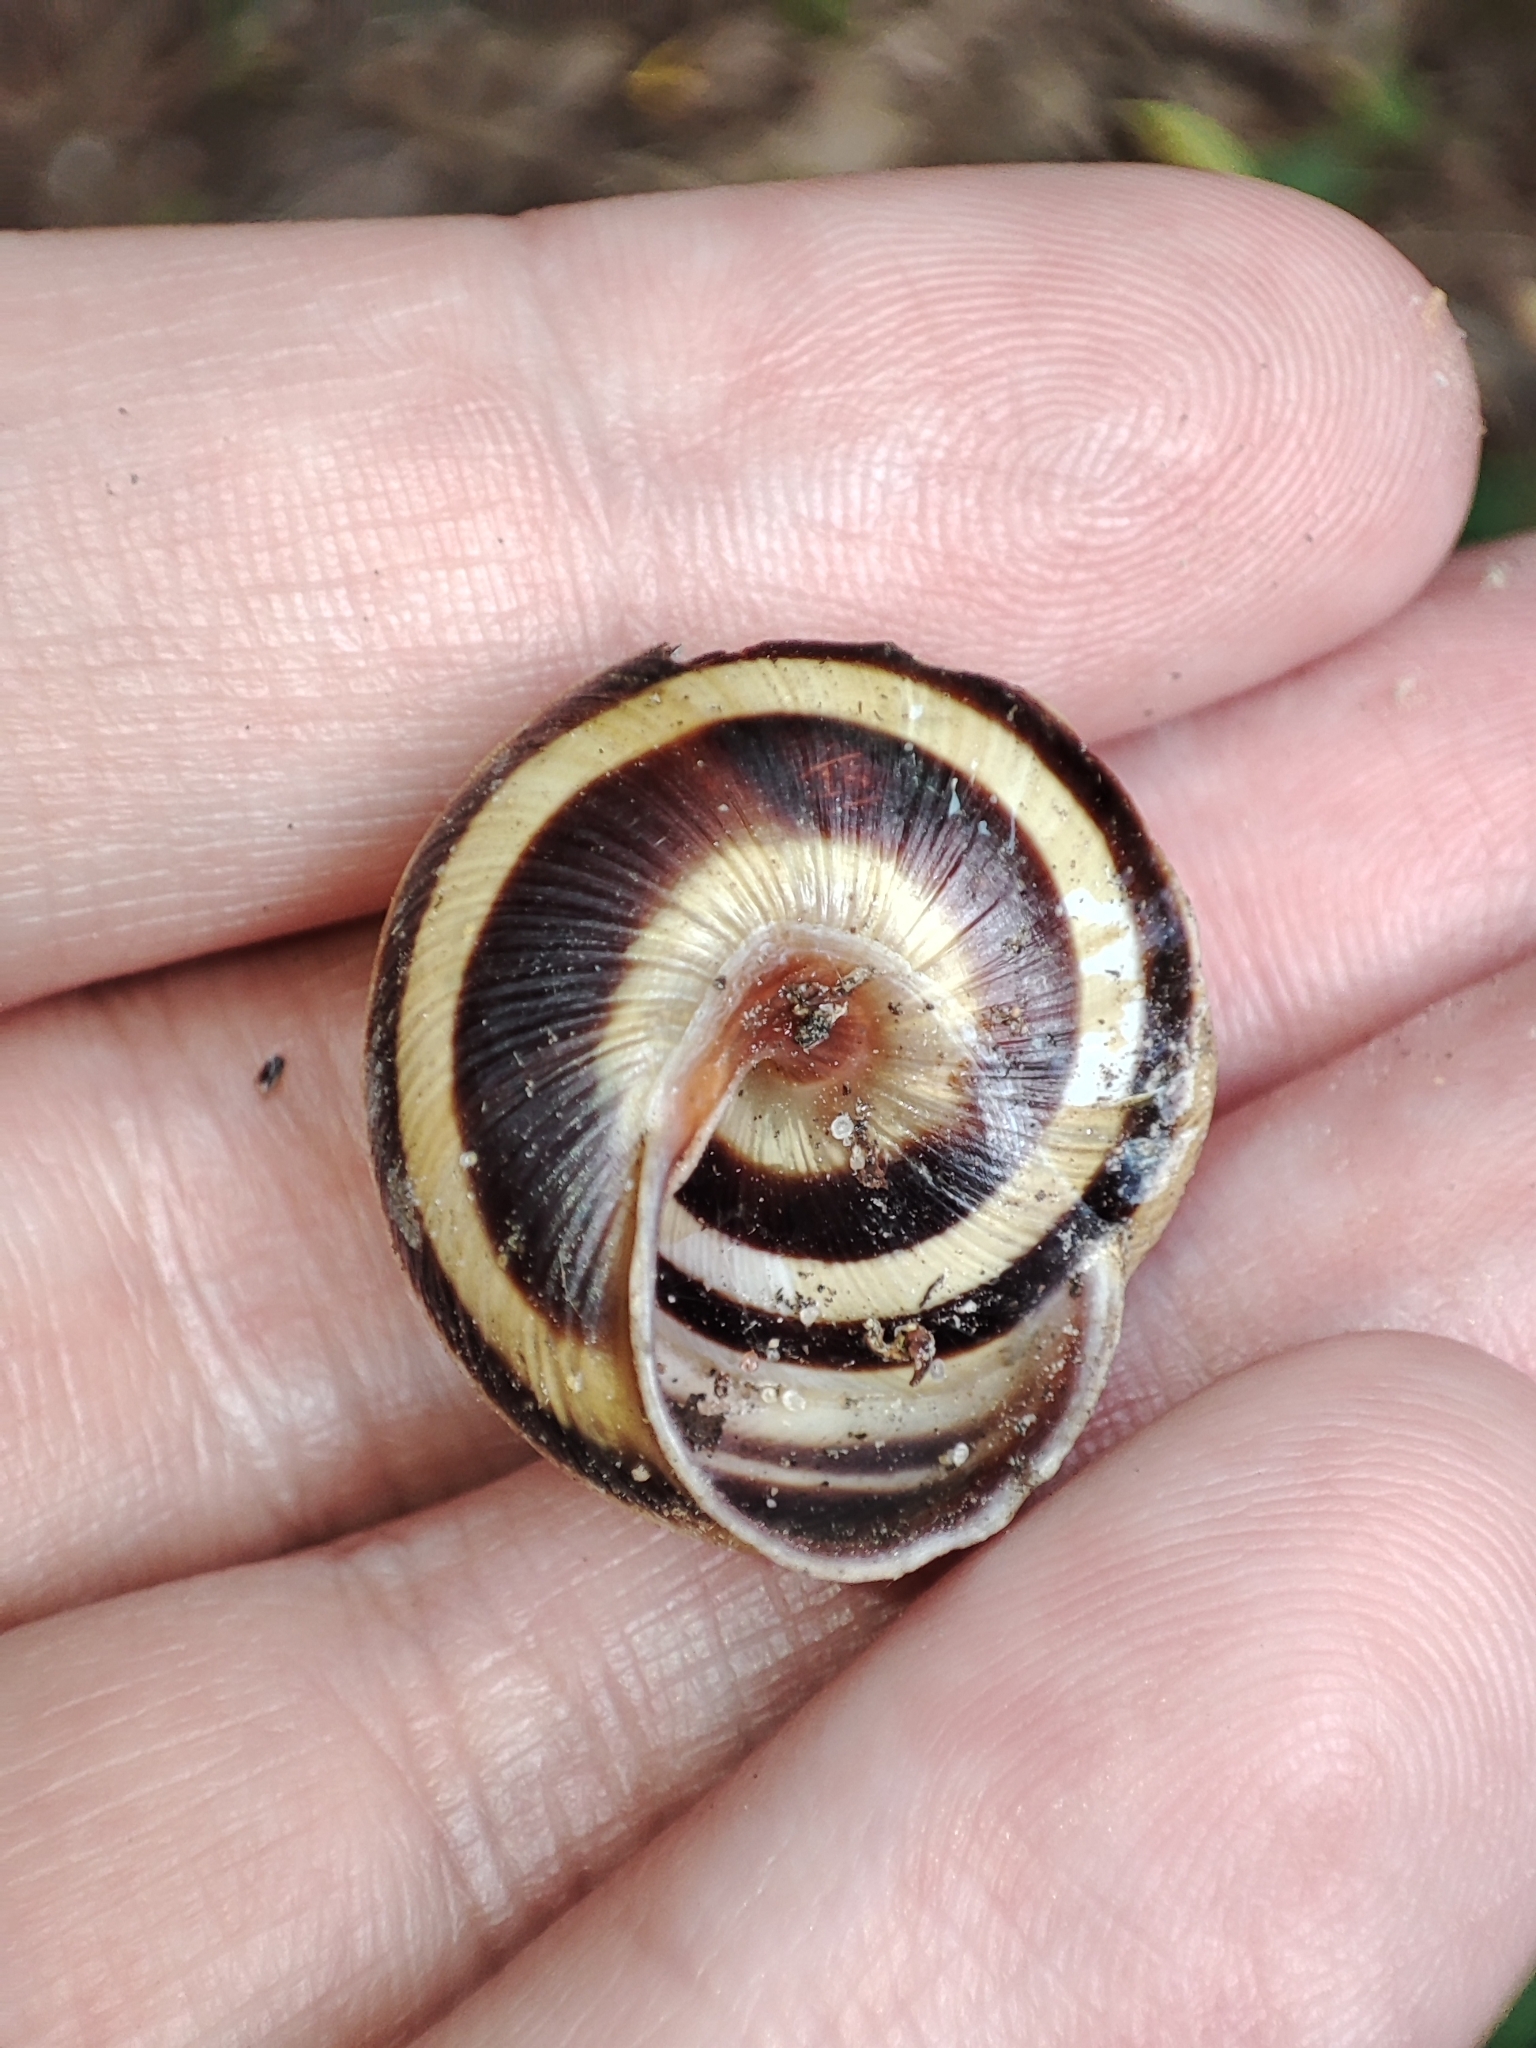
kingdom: Animalia
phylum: Mollusca
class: Gastropoda
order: Stylommatophora
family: Helicidae
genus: Caucasotachea
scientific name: Caucasotachea vindobonensis
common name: European helicid land snail
